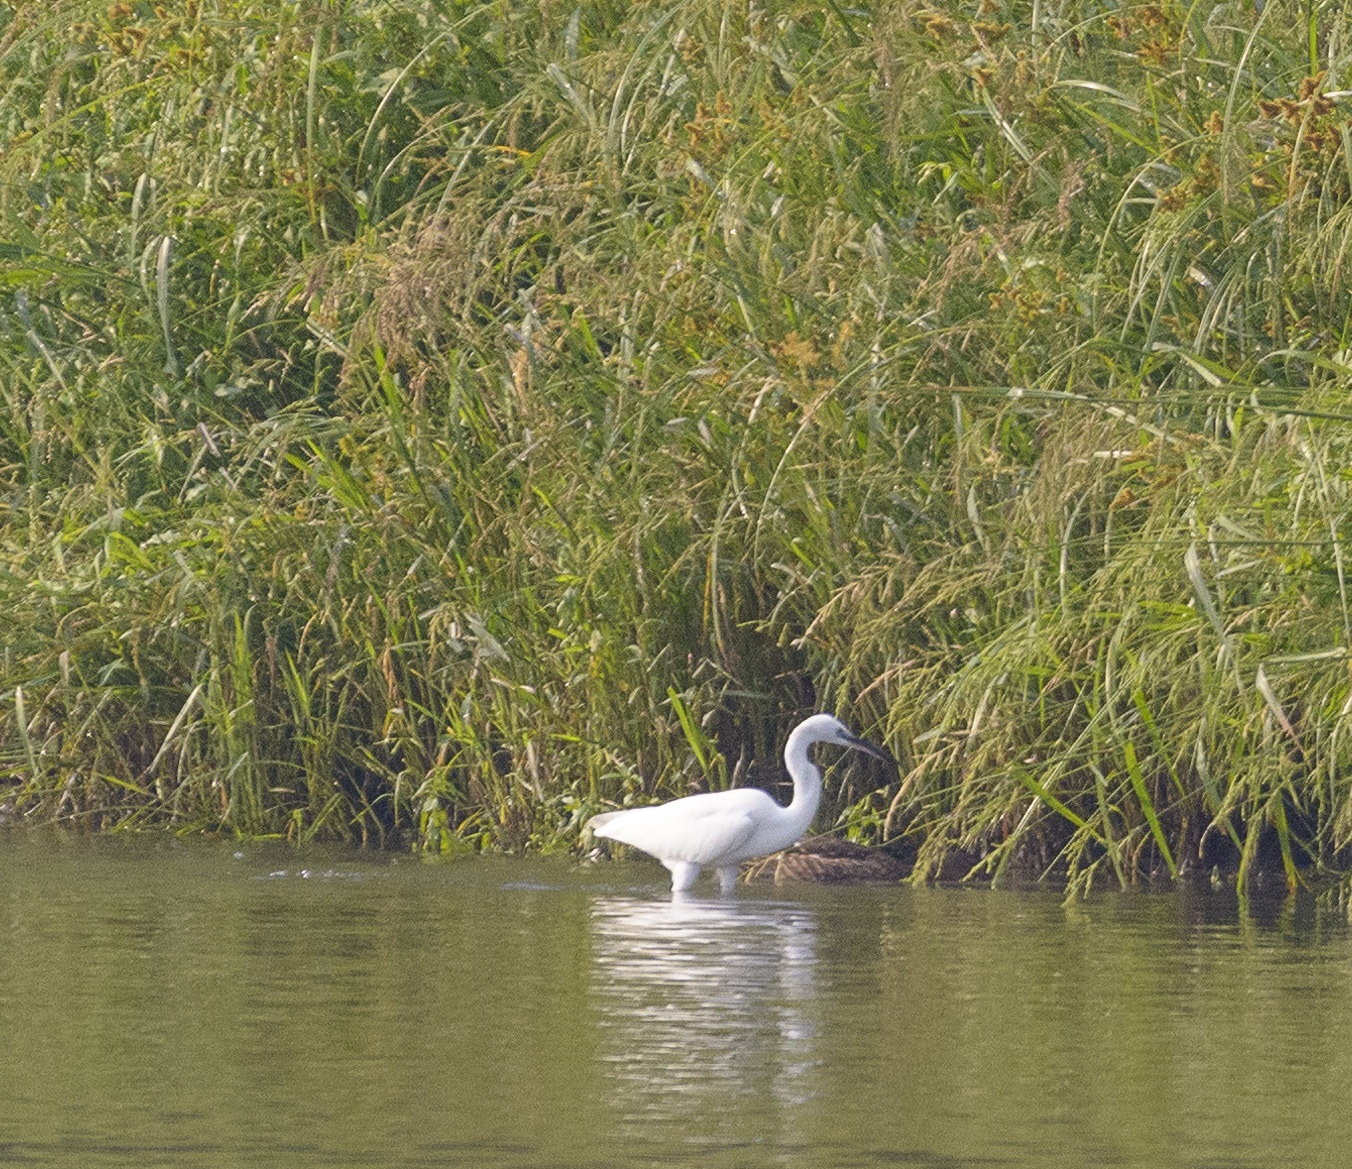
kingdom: Animalia
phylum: Chordata
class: Aves
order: Pelecaniformes
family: Ardeidae
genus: Egretta
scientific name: Egretta garzetta
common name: Little egret
